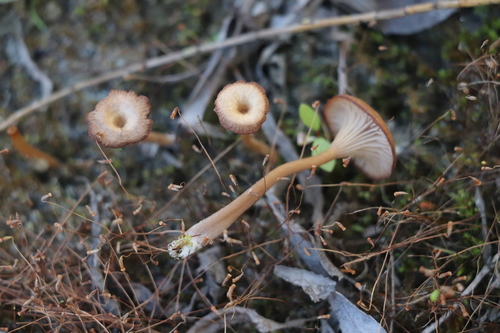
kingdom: Fungi
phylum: Basidiomycota
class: Agaricomycetes
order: Agaricales
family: Hygrophoraceae
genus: Arrhenia
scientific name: Arrhenia
